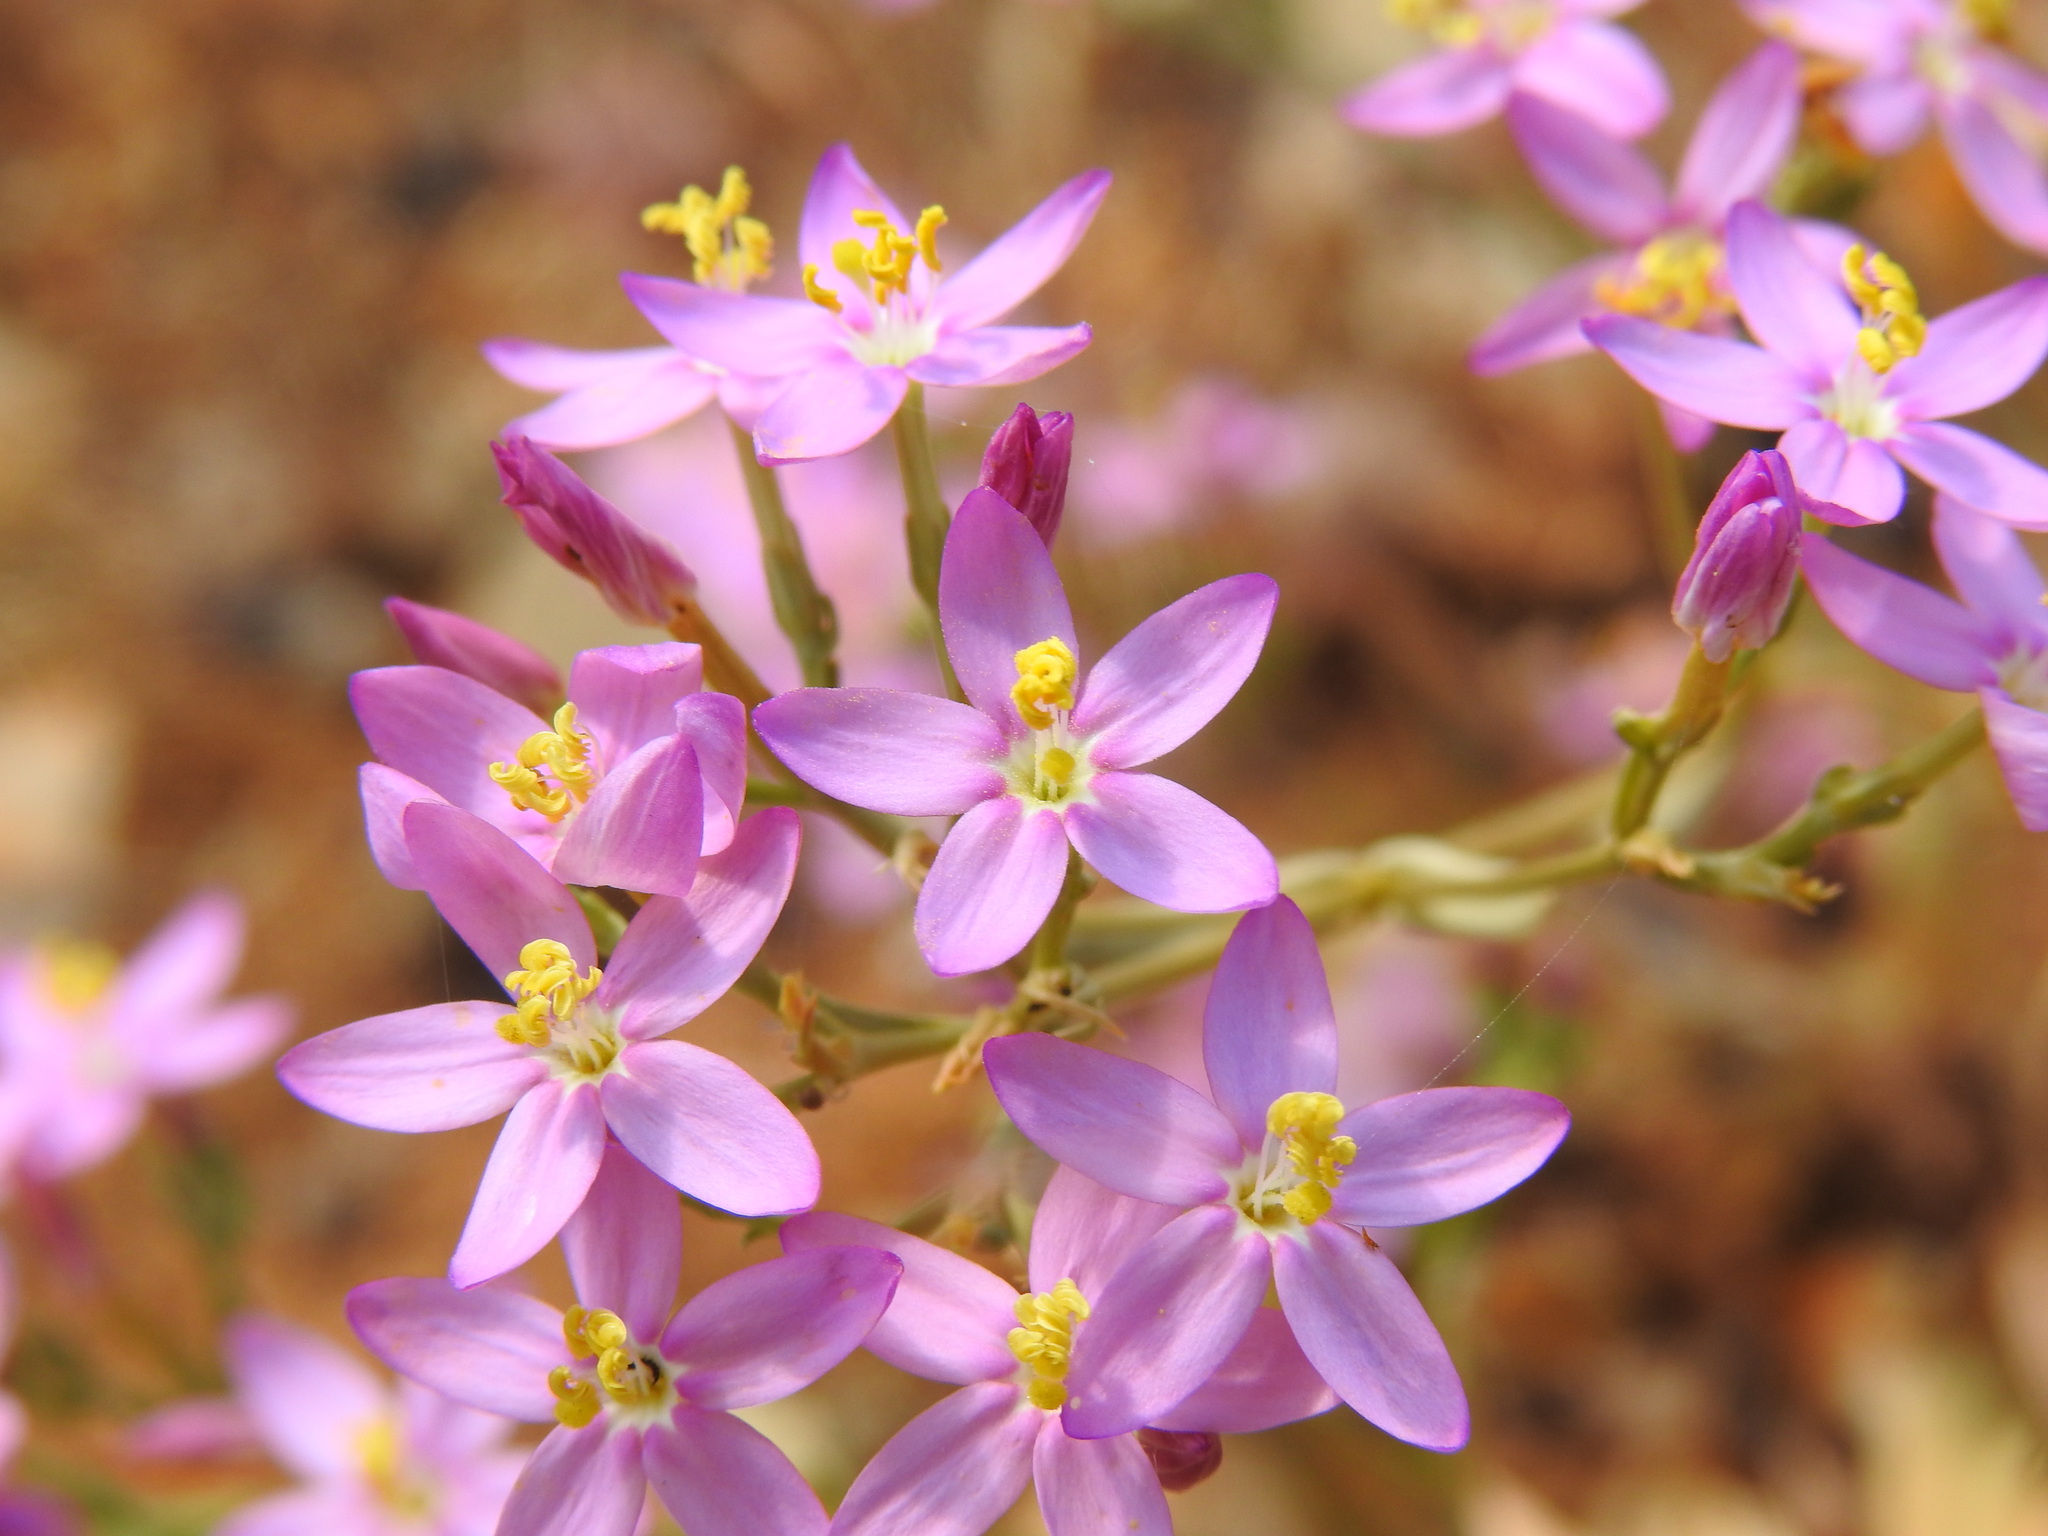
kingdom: Plantae
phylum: Tracheophyta
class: Magnoliopsida
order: Gentianales
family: Gentianaceae
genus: Centaurium
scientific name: Centaurium grandiflorum
